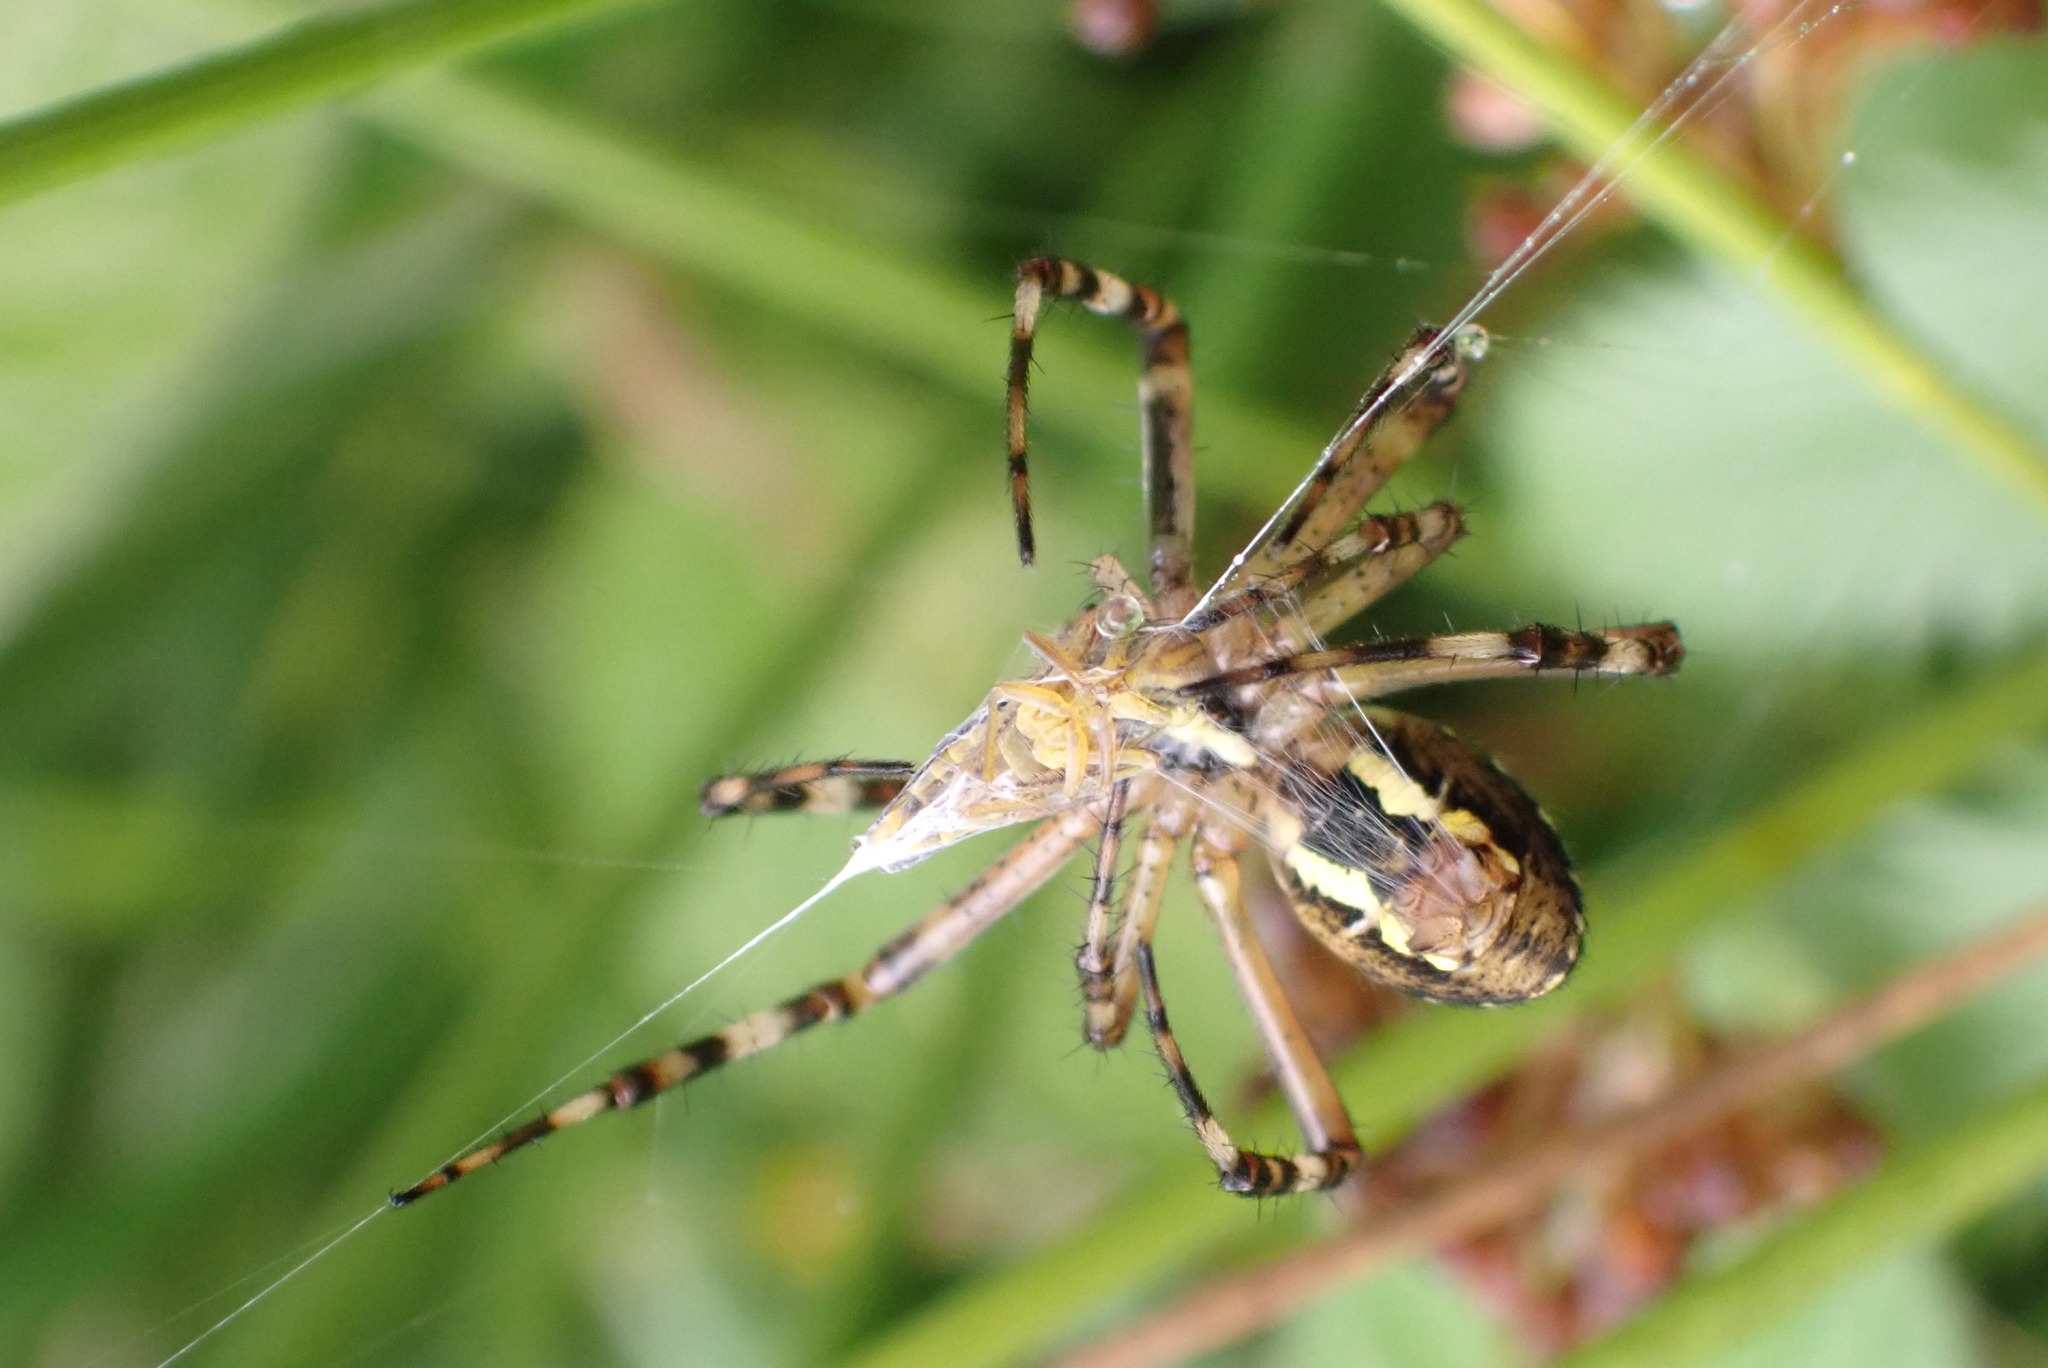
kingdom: Animalia
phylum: Arthropoda
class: Arachnida
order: Araneae
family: Araneidae
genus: Argiope
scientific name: Argiope bruennichi
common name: Wasp spider
